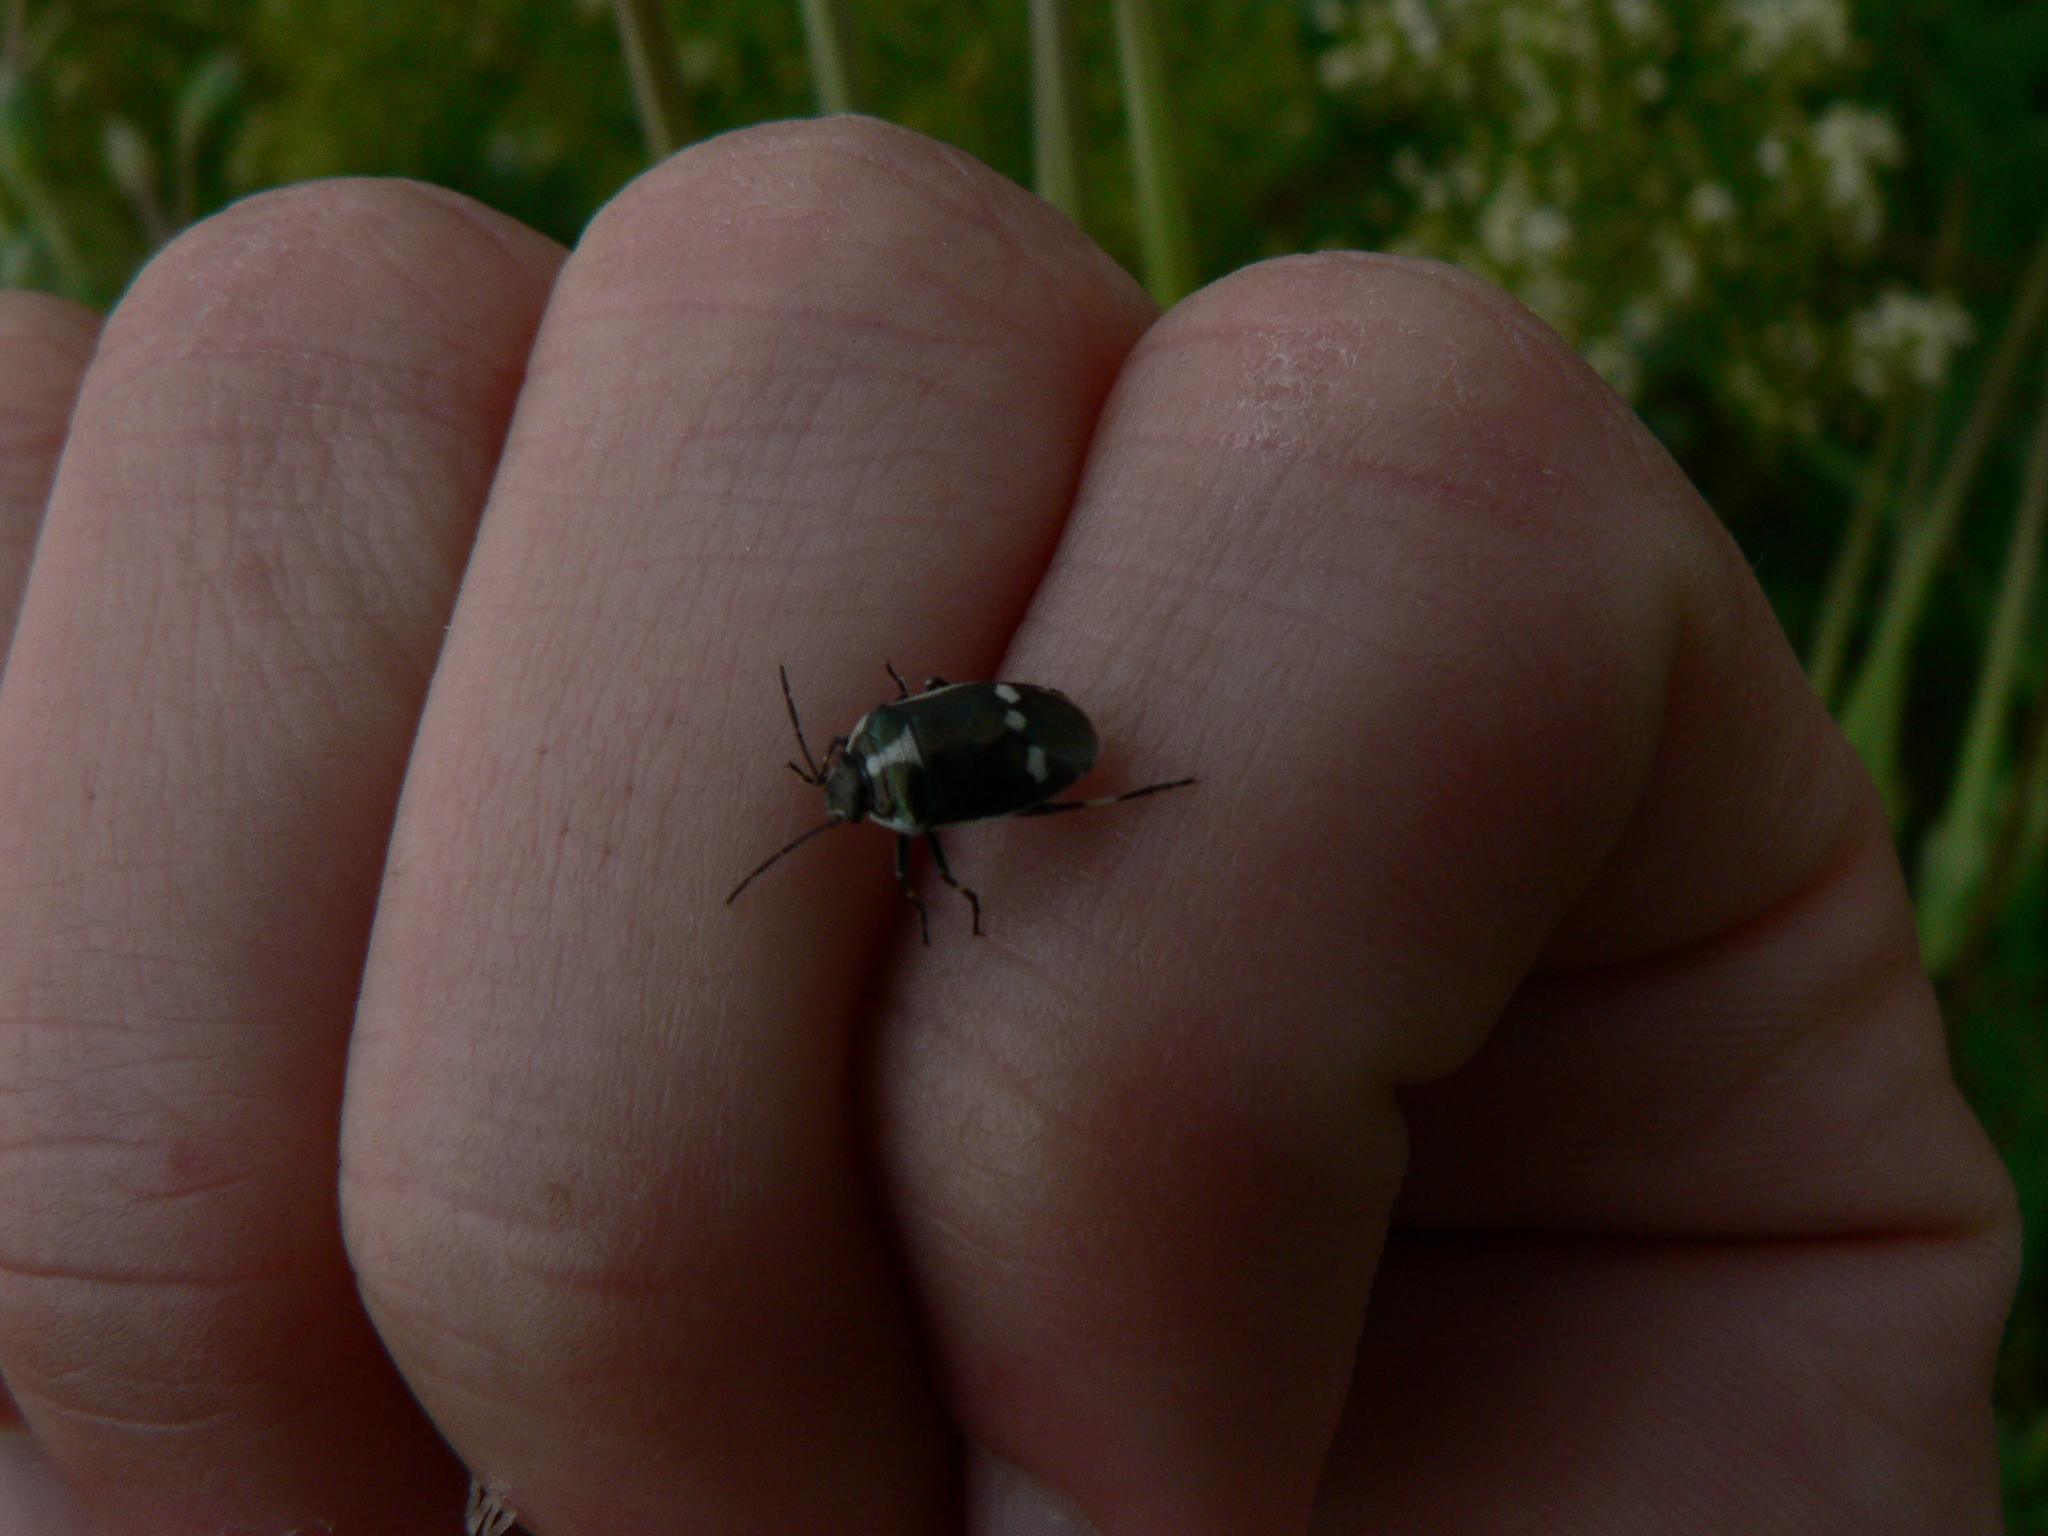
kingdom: Animalia
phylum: Arthropoda
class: Insecta
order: Hemiptera
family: Pentatomidae
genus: Eurydema
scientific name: Eurydema oleracea
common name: Cabbage bug
